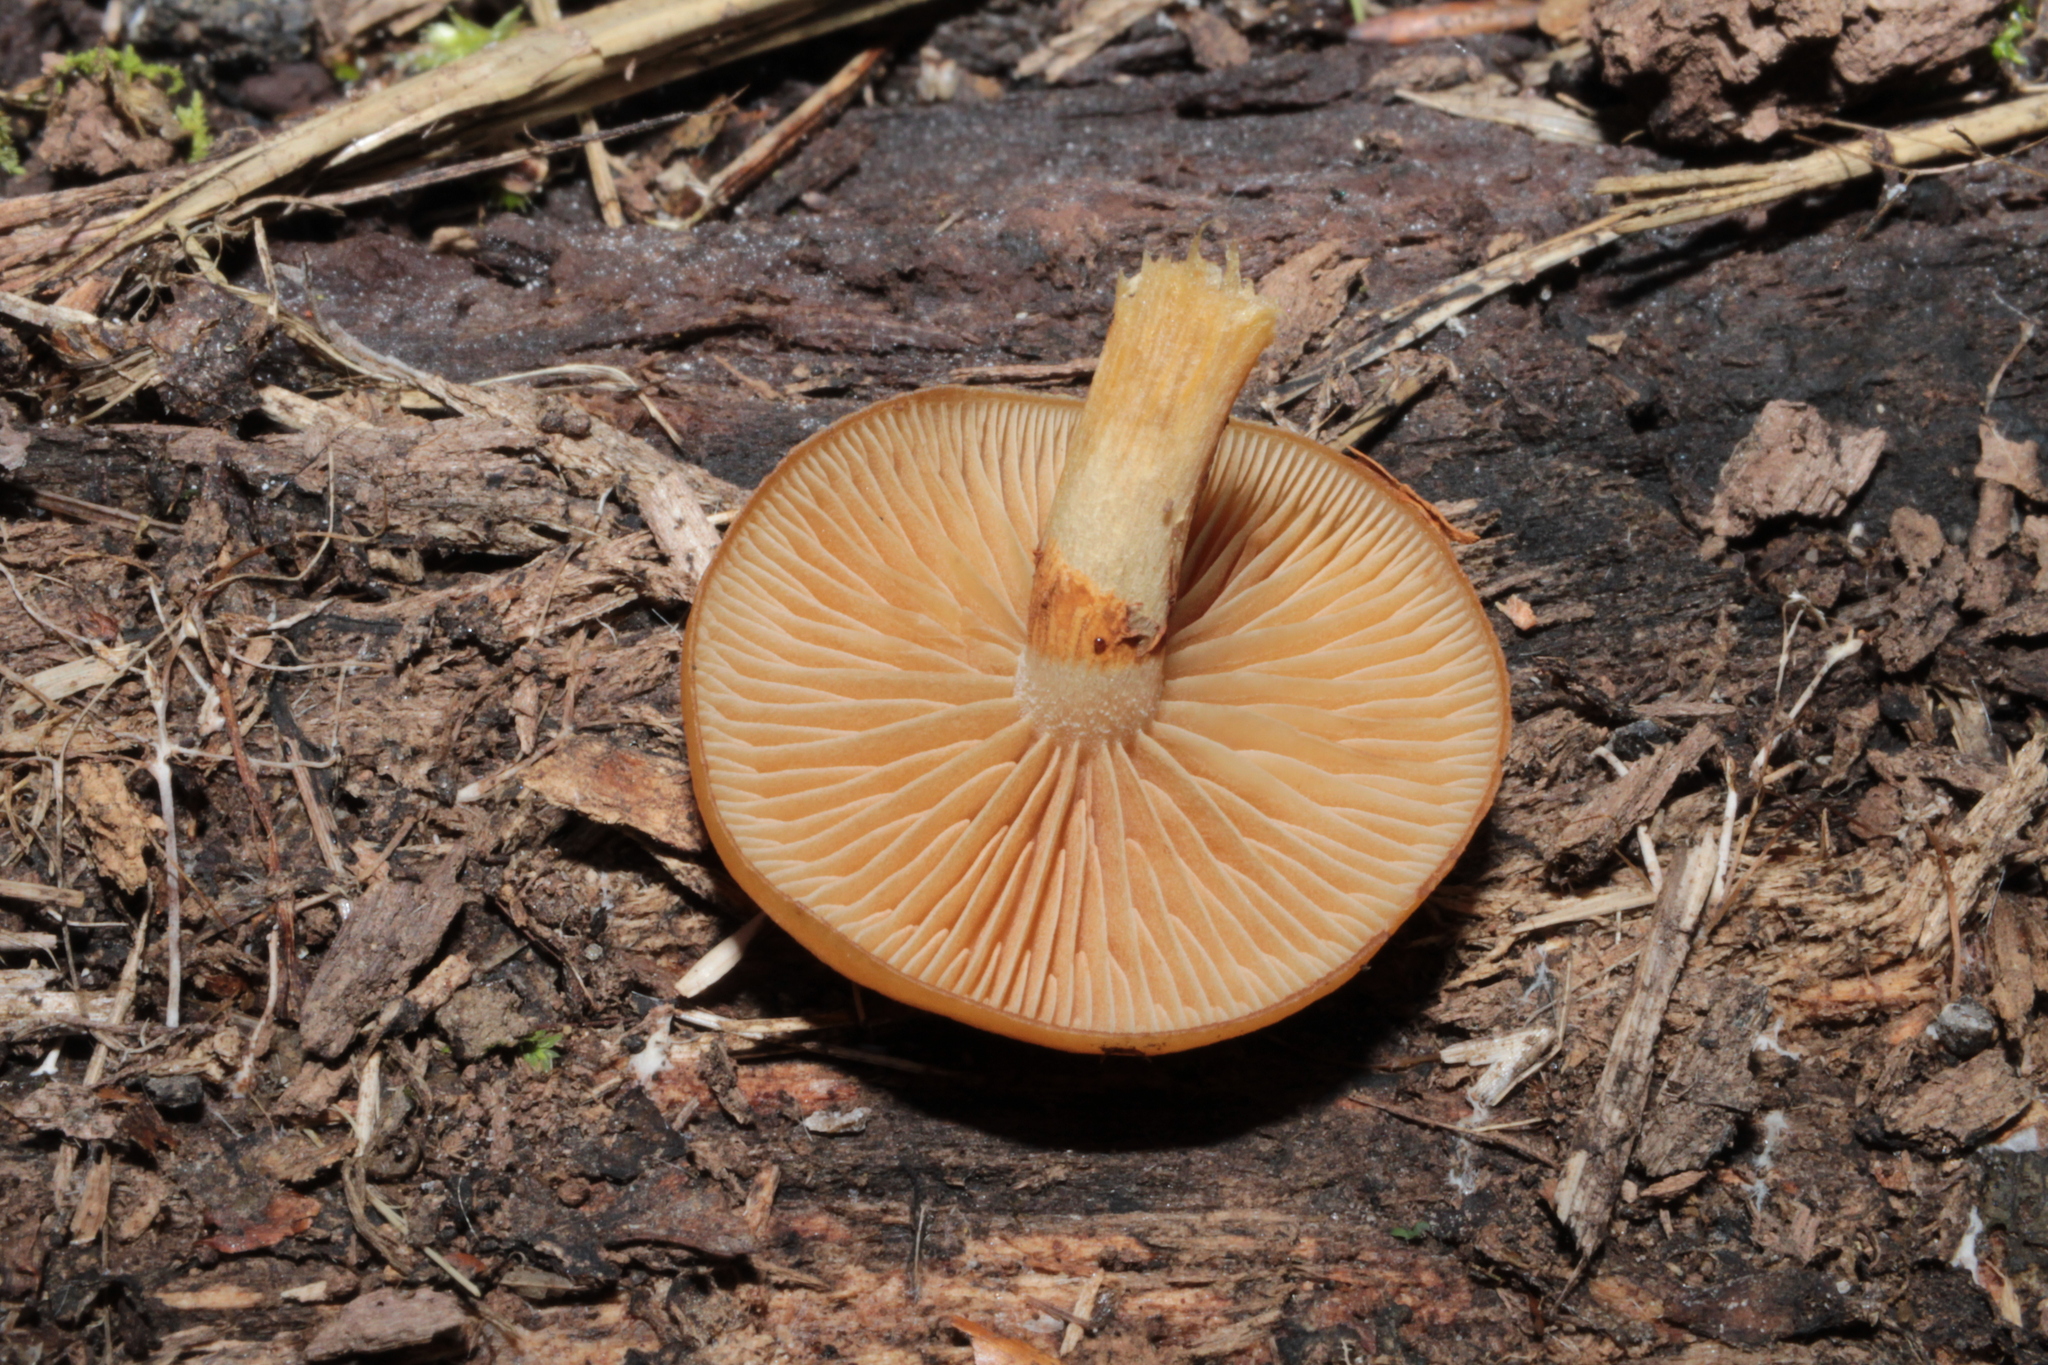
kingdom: Fungi
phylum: Basidiomycota
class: Agaricomycetes
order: Agaricales
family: Hymenogastraceae
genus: Galerina
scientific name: Galerina marginata
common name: Funeral bell
